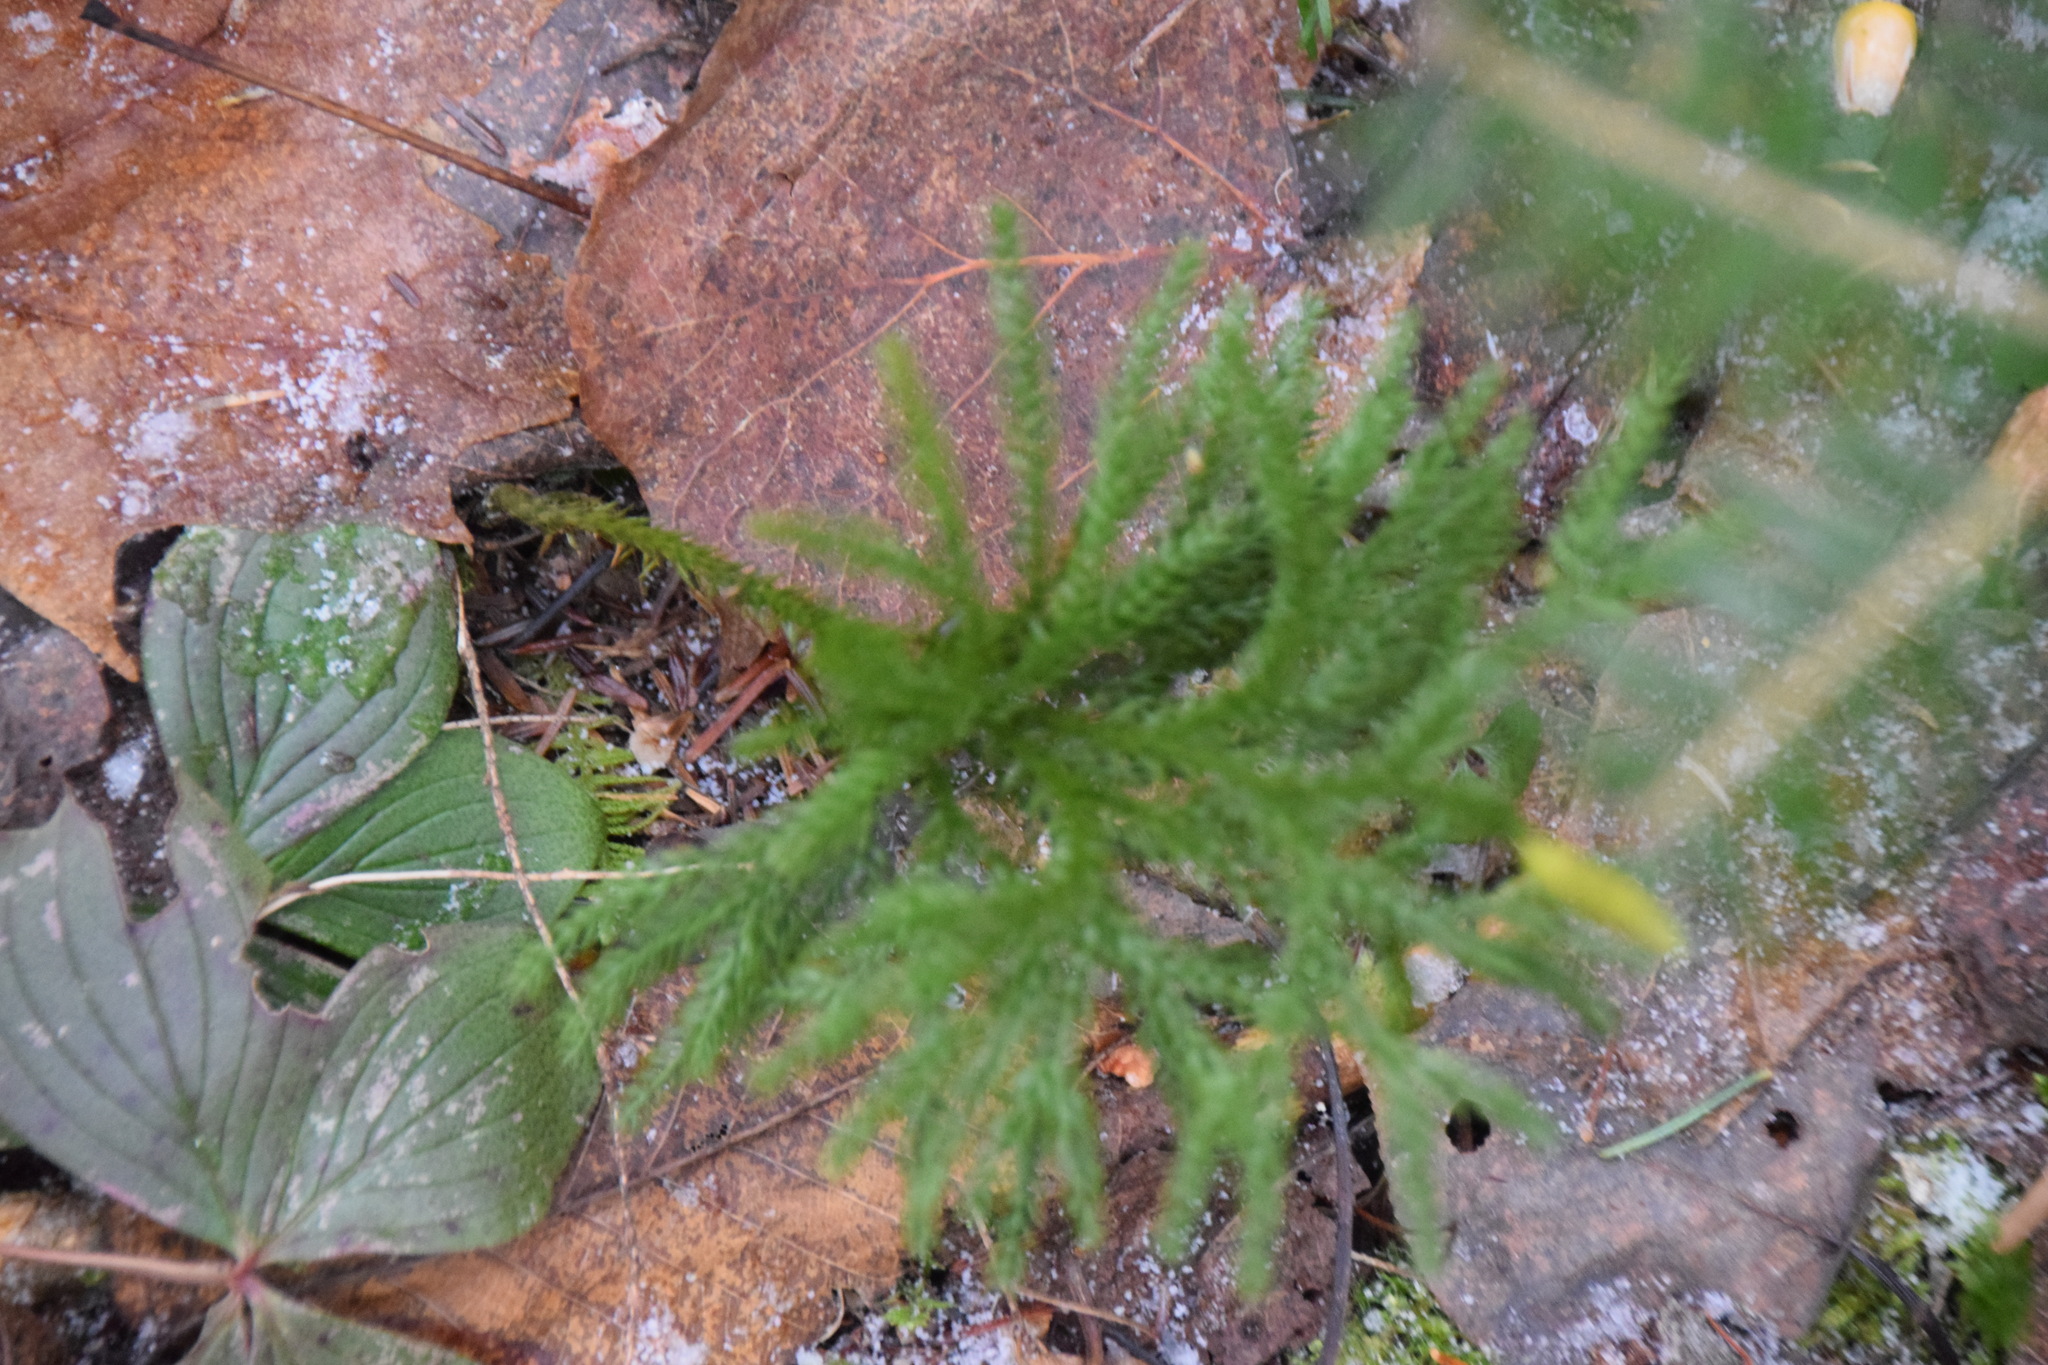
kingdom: Plantae
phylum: Tracheophyta
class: Lycopodiopsida
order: Lycopodiales
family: Lycopodiaceae
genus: Dendrolycopodium
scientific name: Dendrolycopodium dendroideum
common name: Northern tree-clubmoss
